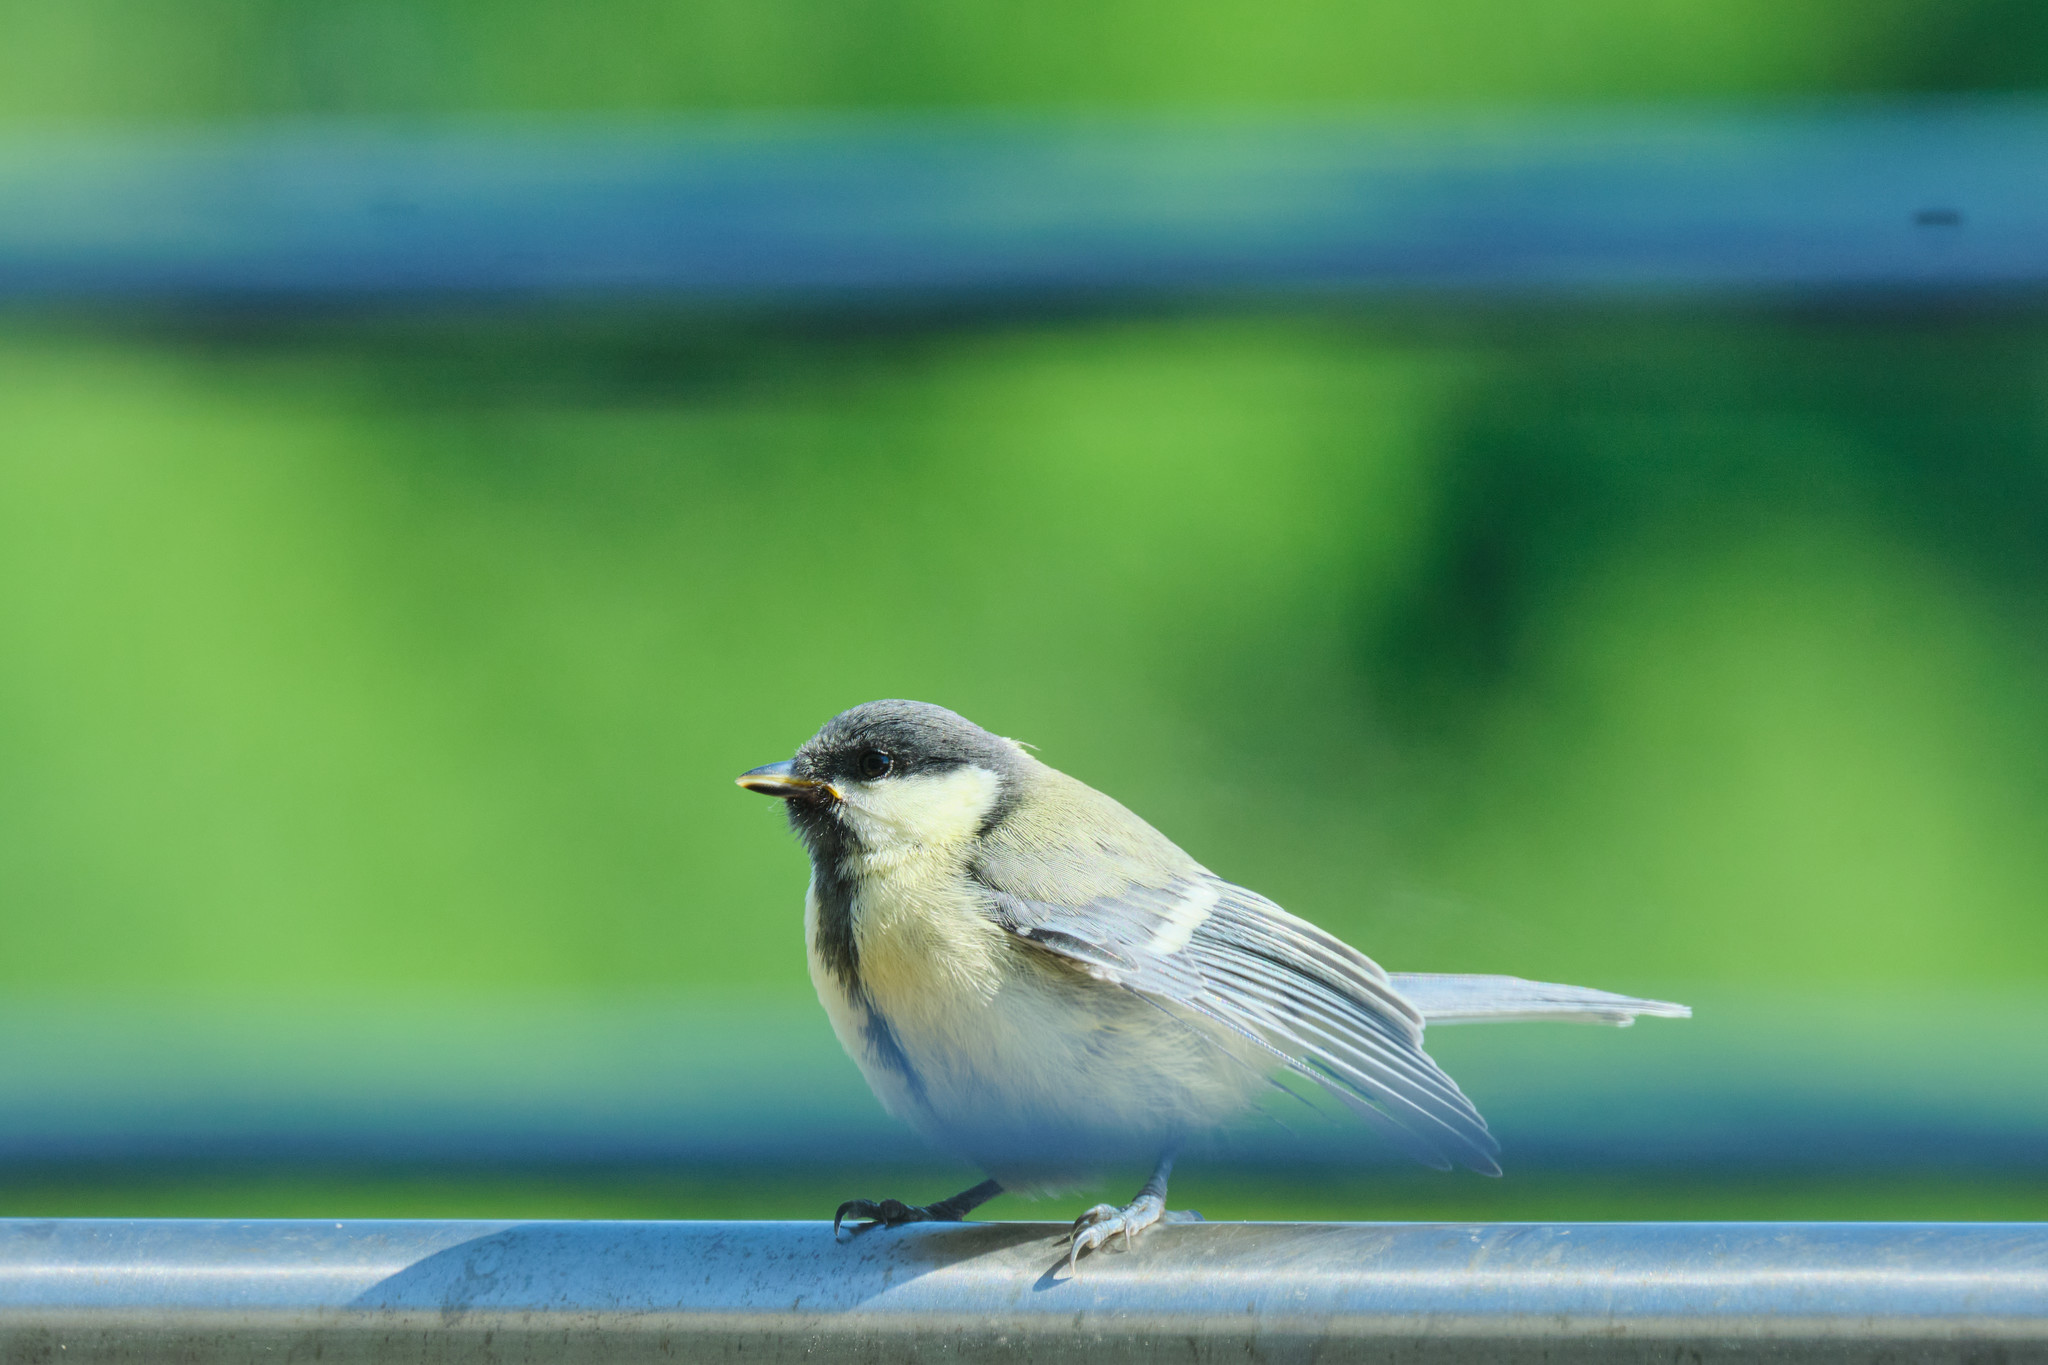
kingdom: Animalia
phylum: Chordata
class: Aves
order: Passeriformes
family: Paridae
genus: Parus
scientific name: Parus major
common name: Great tit
